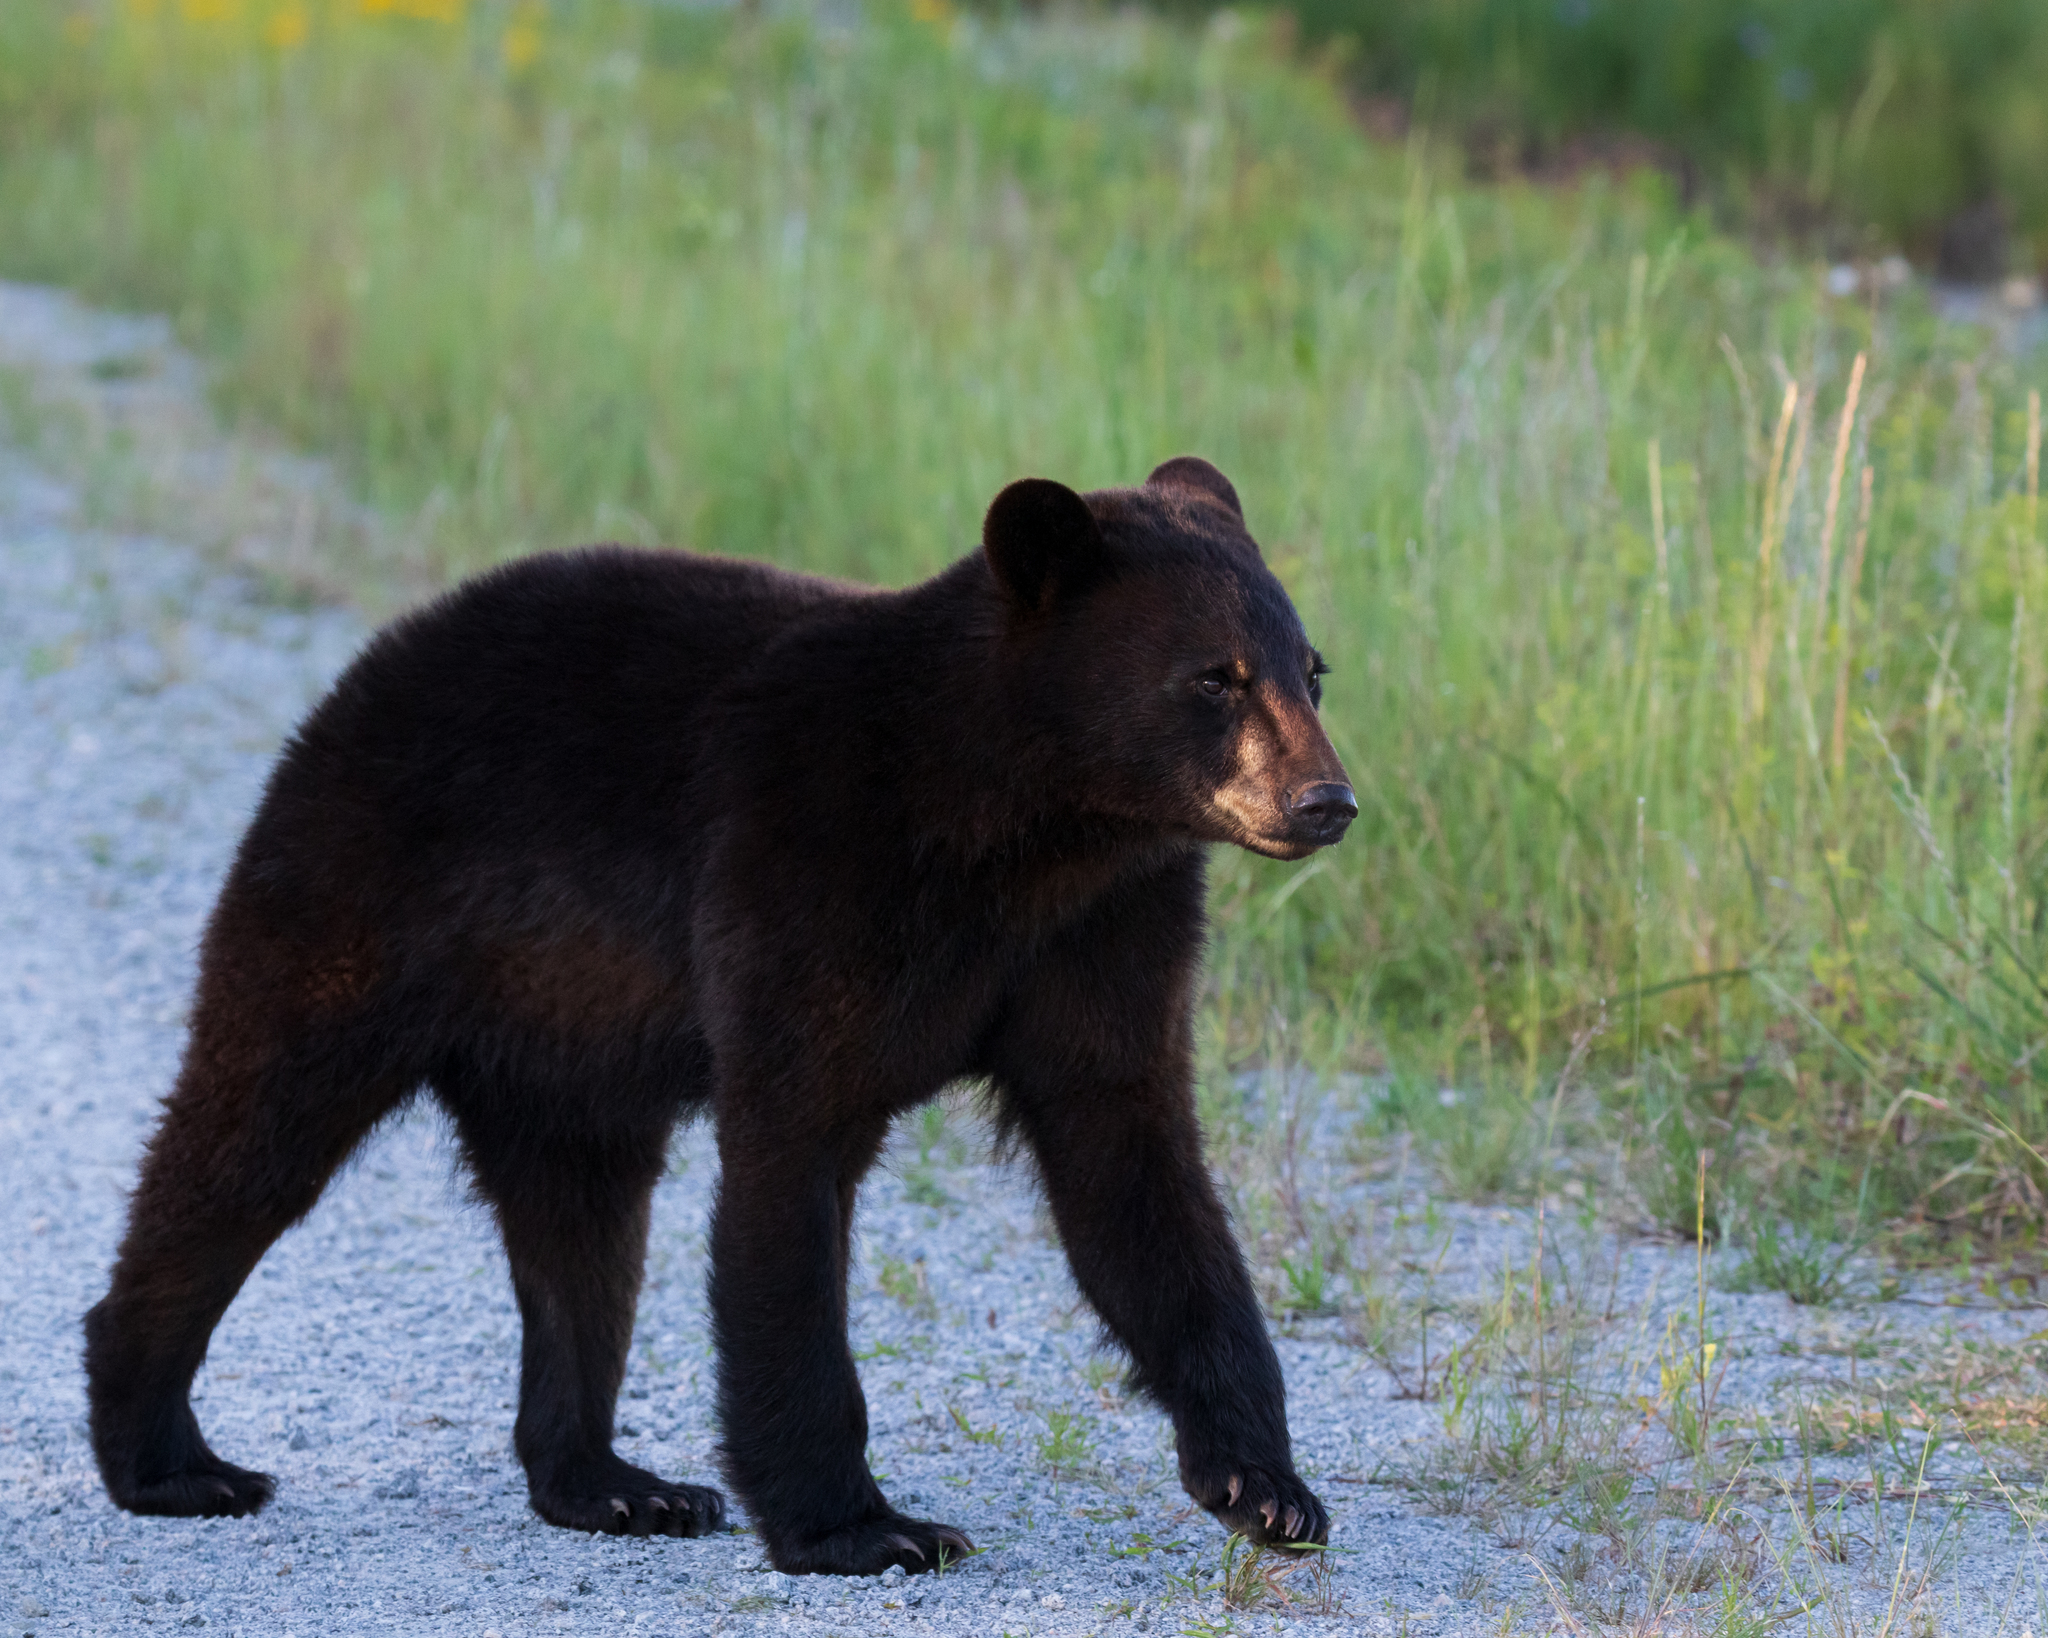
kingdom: Animalia
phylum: Chordata
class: Mammalia
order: Carnivora
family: Ursidae
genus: Ursus
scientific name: Ursus americanus
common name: American black bear
